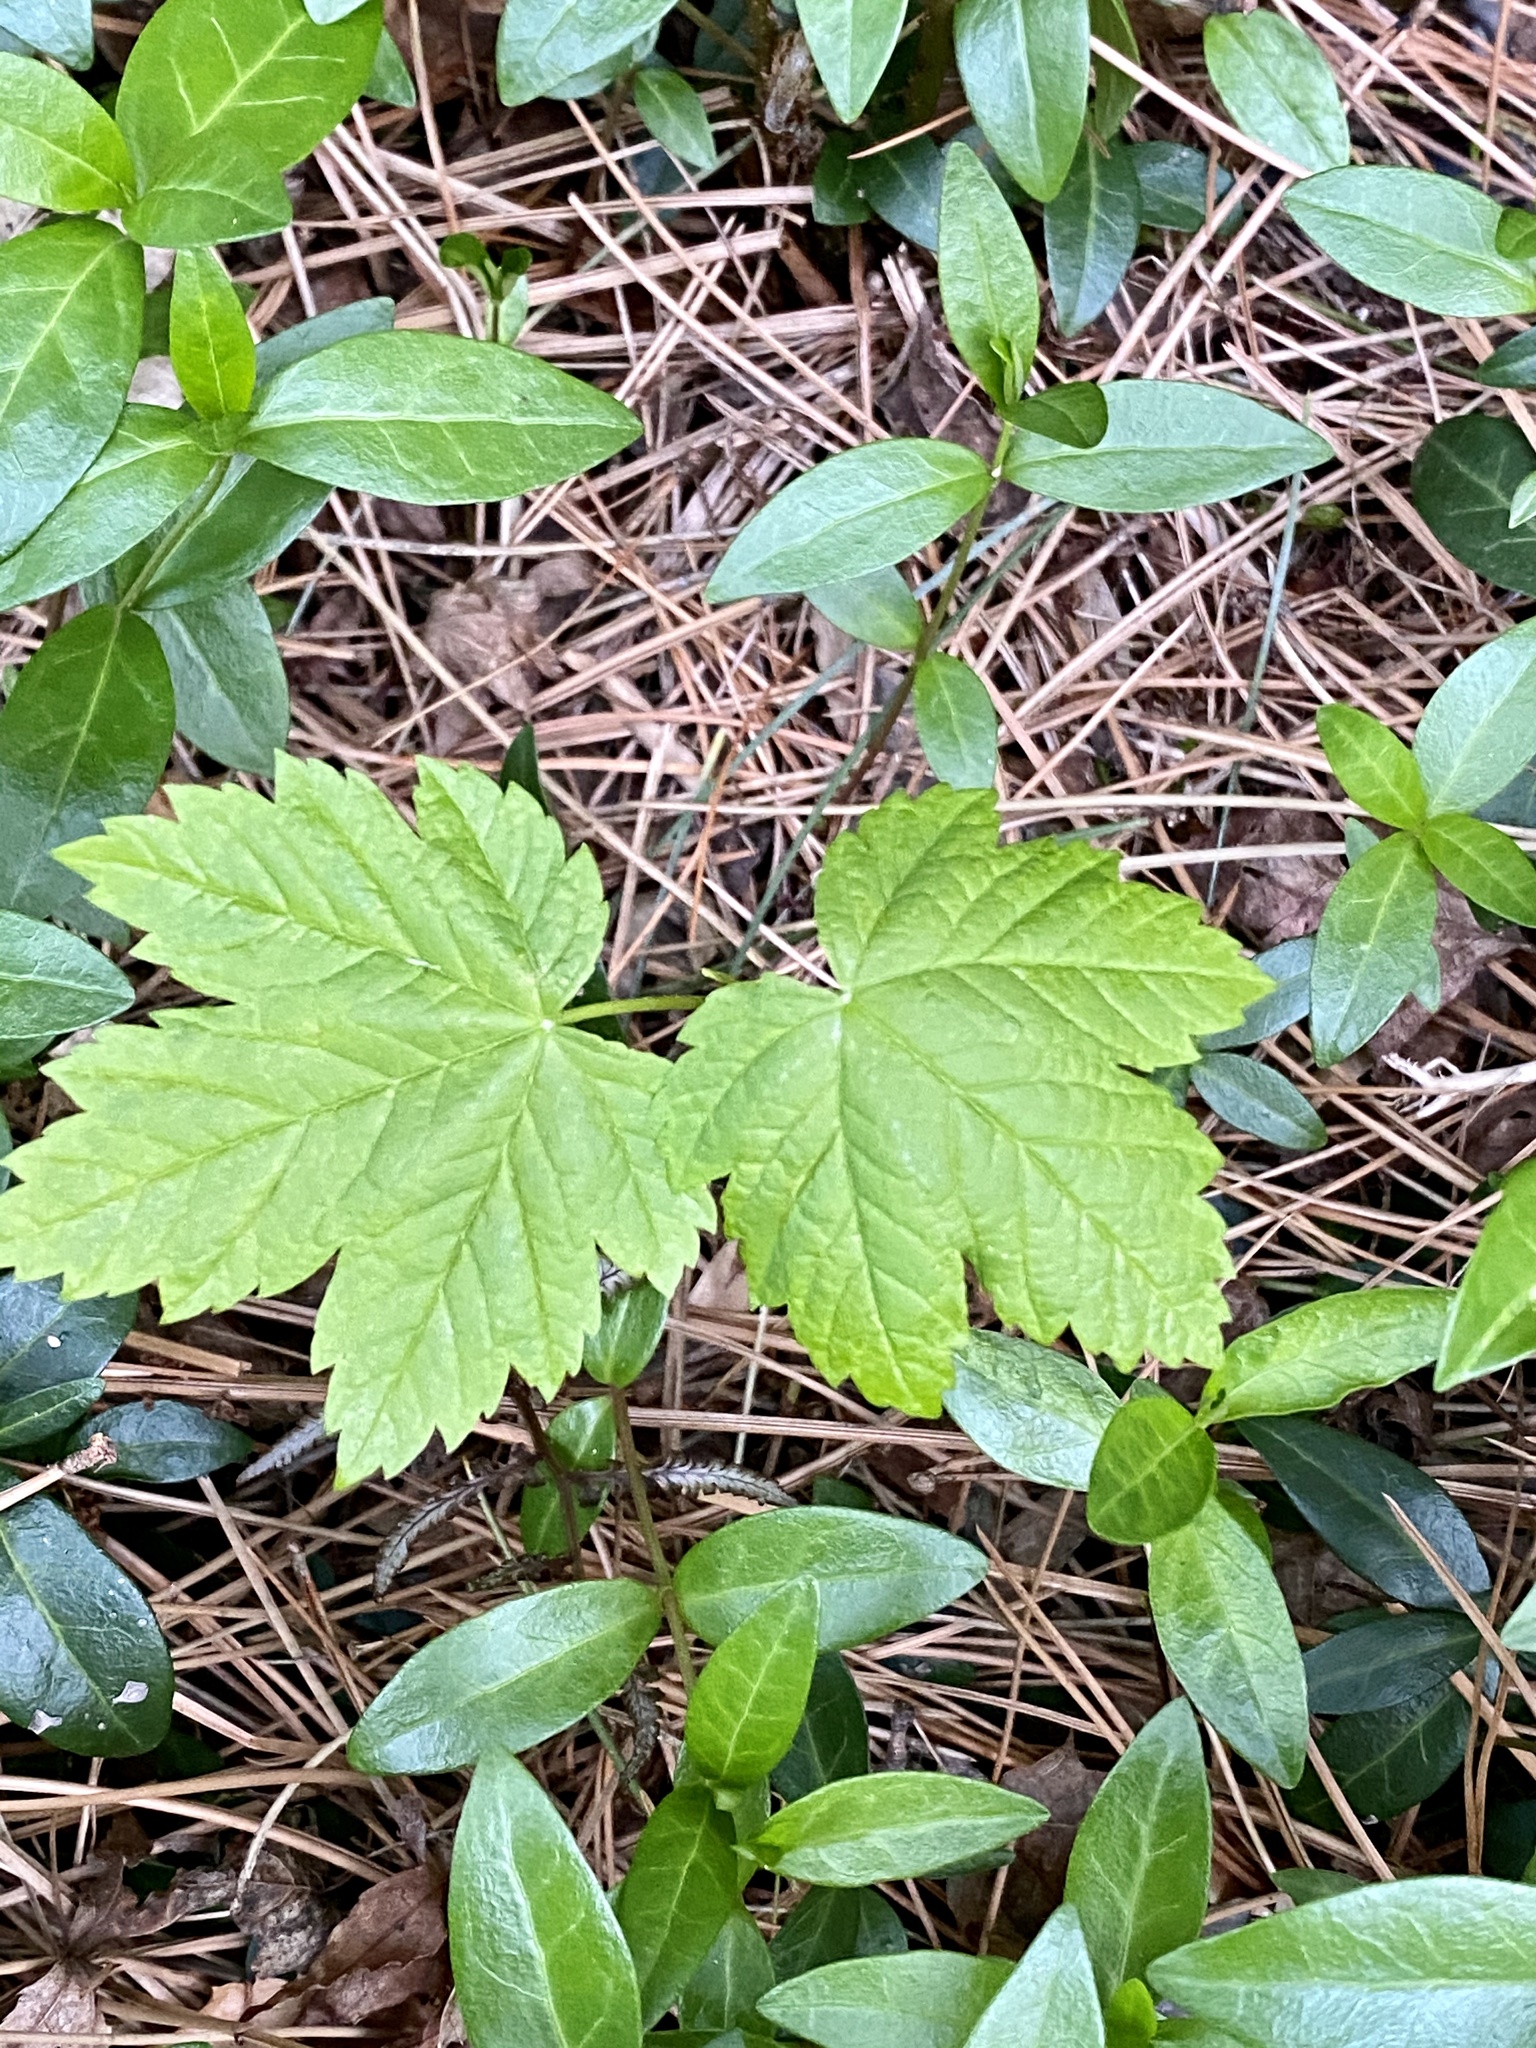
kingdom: Plantae
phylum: Tracheophyta
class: Magnoliopsida
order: Sapindales
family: Sapindaceae
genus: Acer
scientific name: Acer pseudoplatanus
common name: Sycamore
